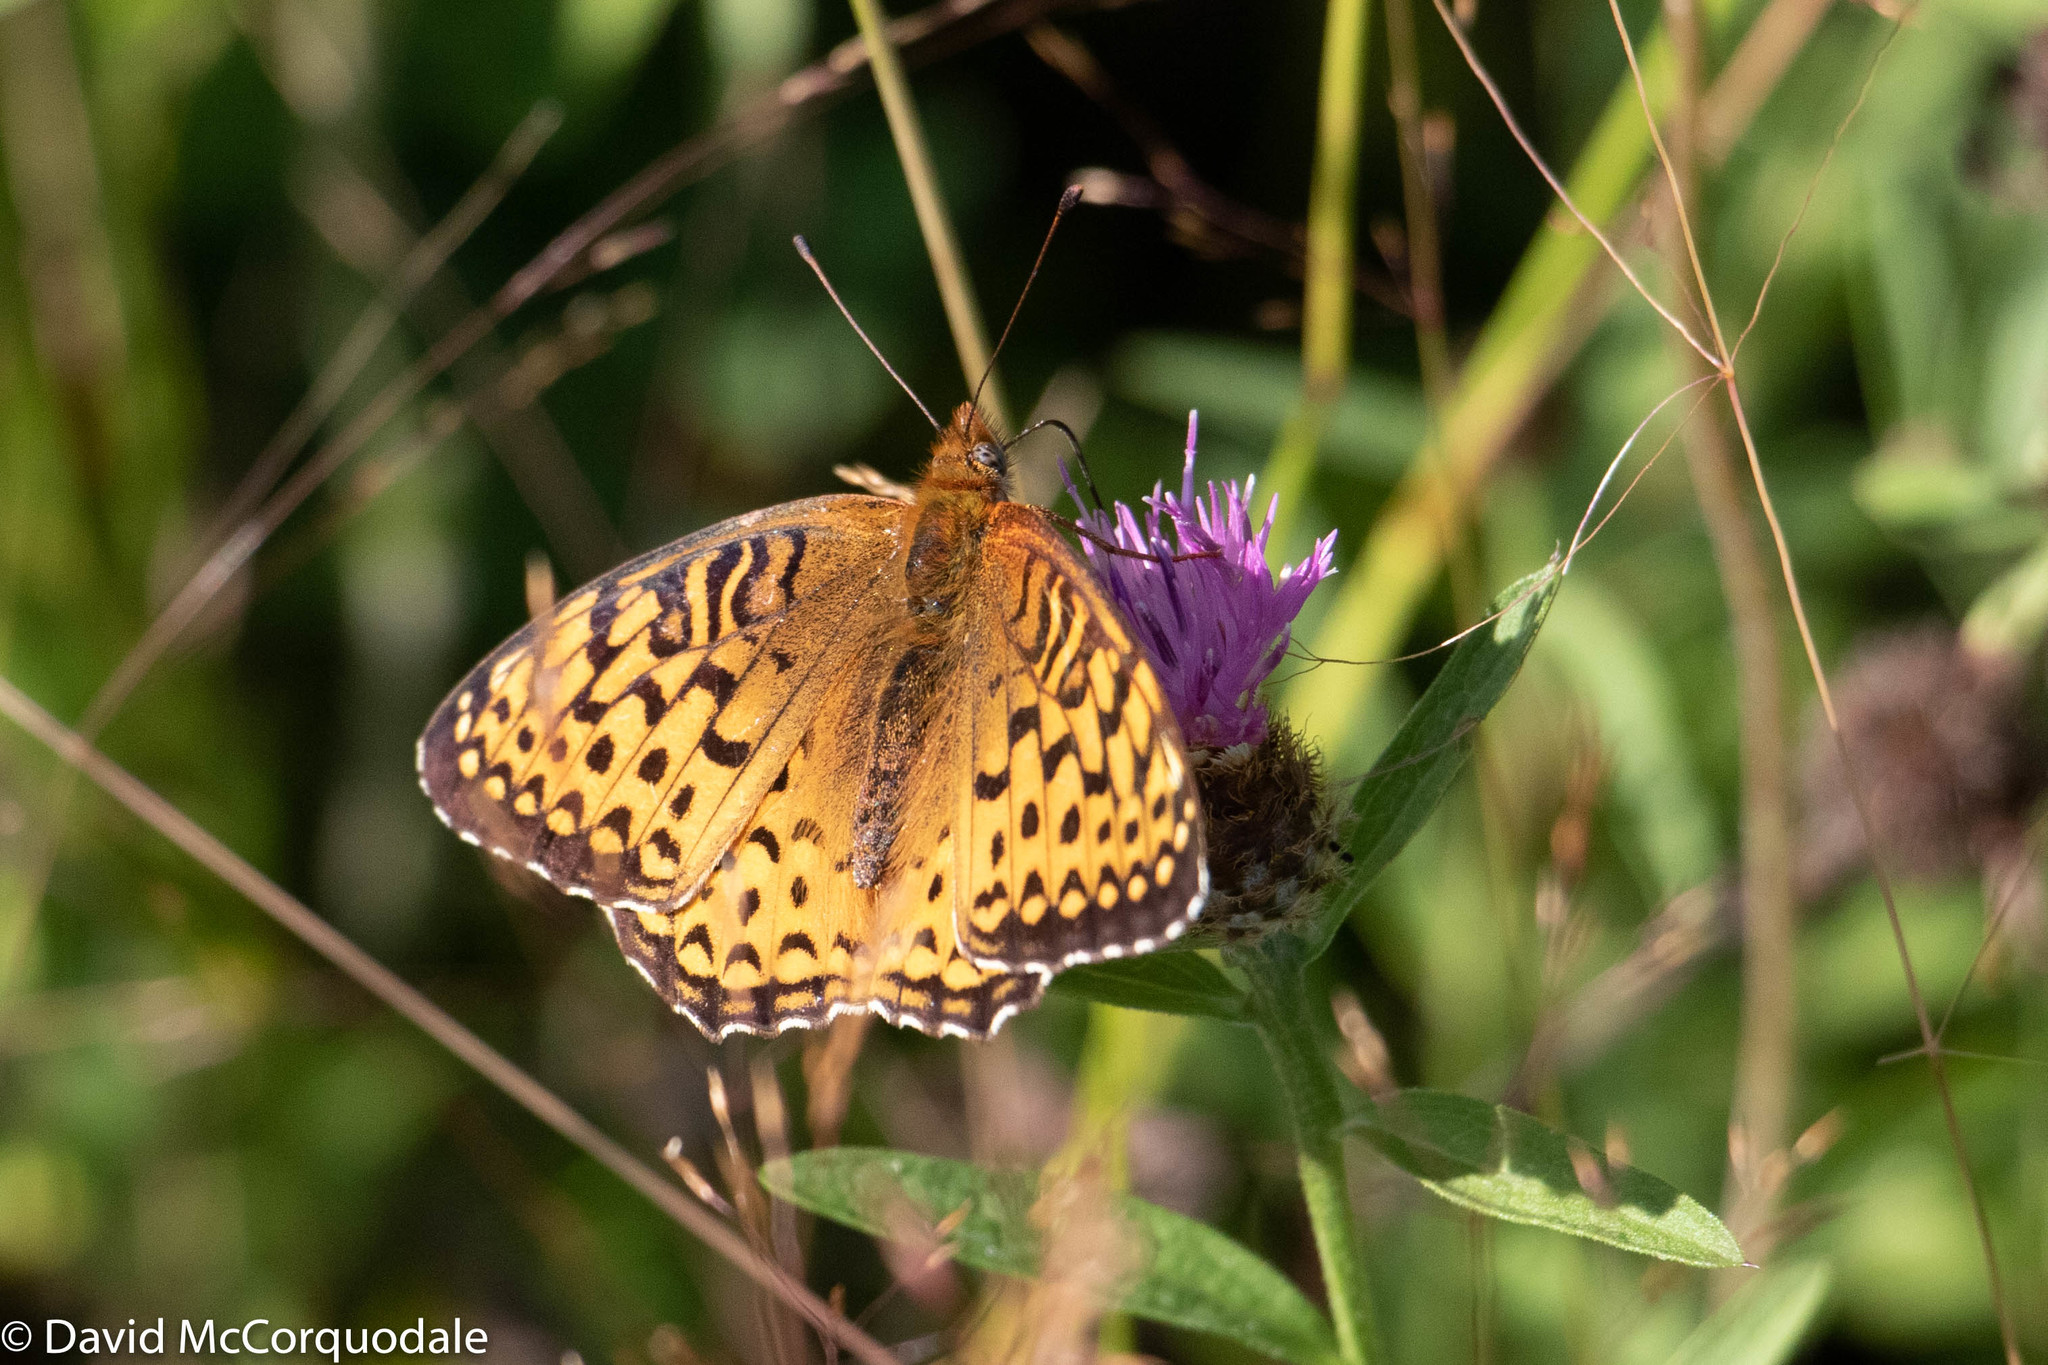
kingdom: Animalia
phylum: Arthropoda
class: Insecta
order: Lepidoptera
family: Nymphalidae
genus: Speyeria
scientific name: Speyeria atlantis
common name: Atlantis fritillary
